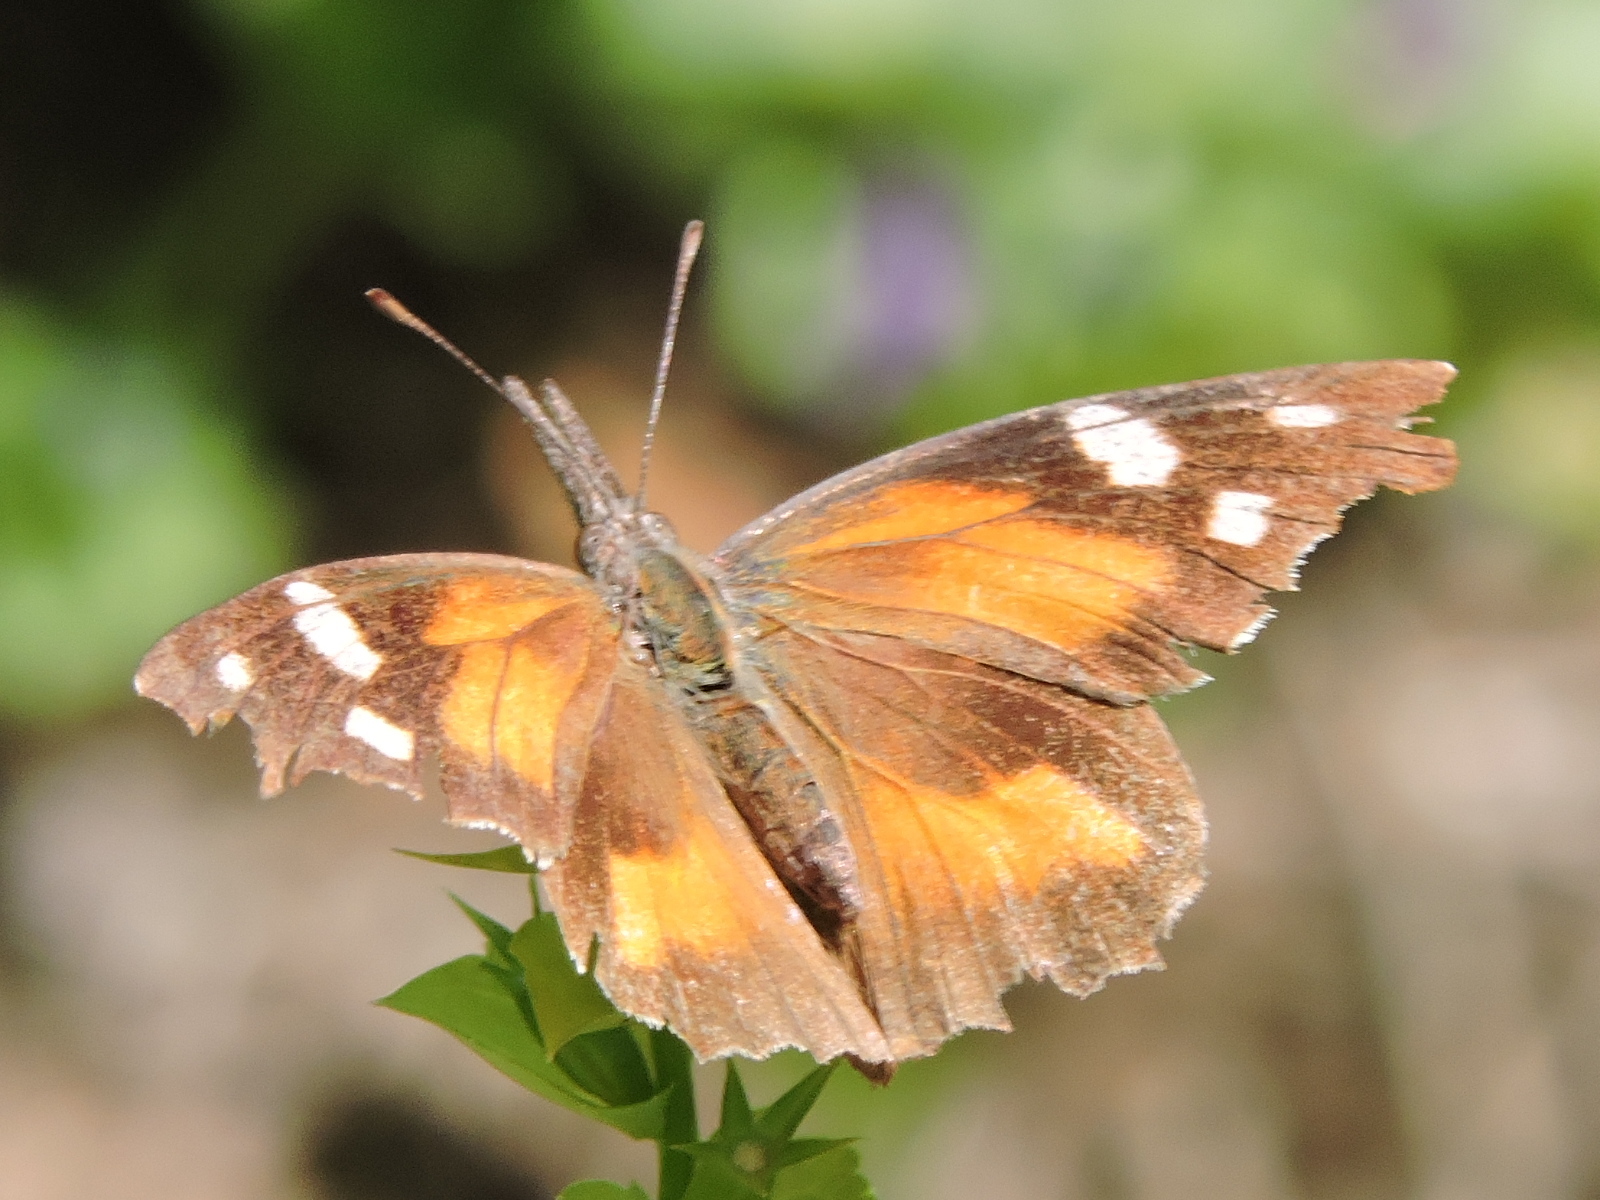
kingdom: Animalia
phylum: Arthropoda
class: Insecta
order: Lepidoptera
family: Nymphalidae
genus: Libytheana
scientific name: Libytheana carinenta
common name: American snout
